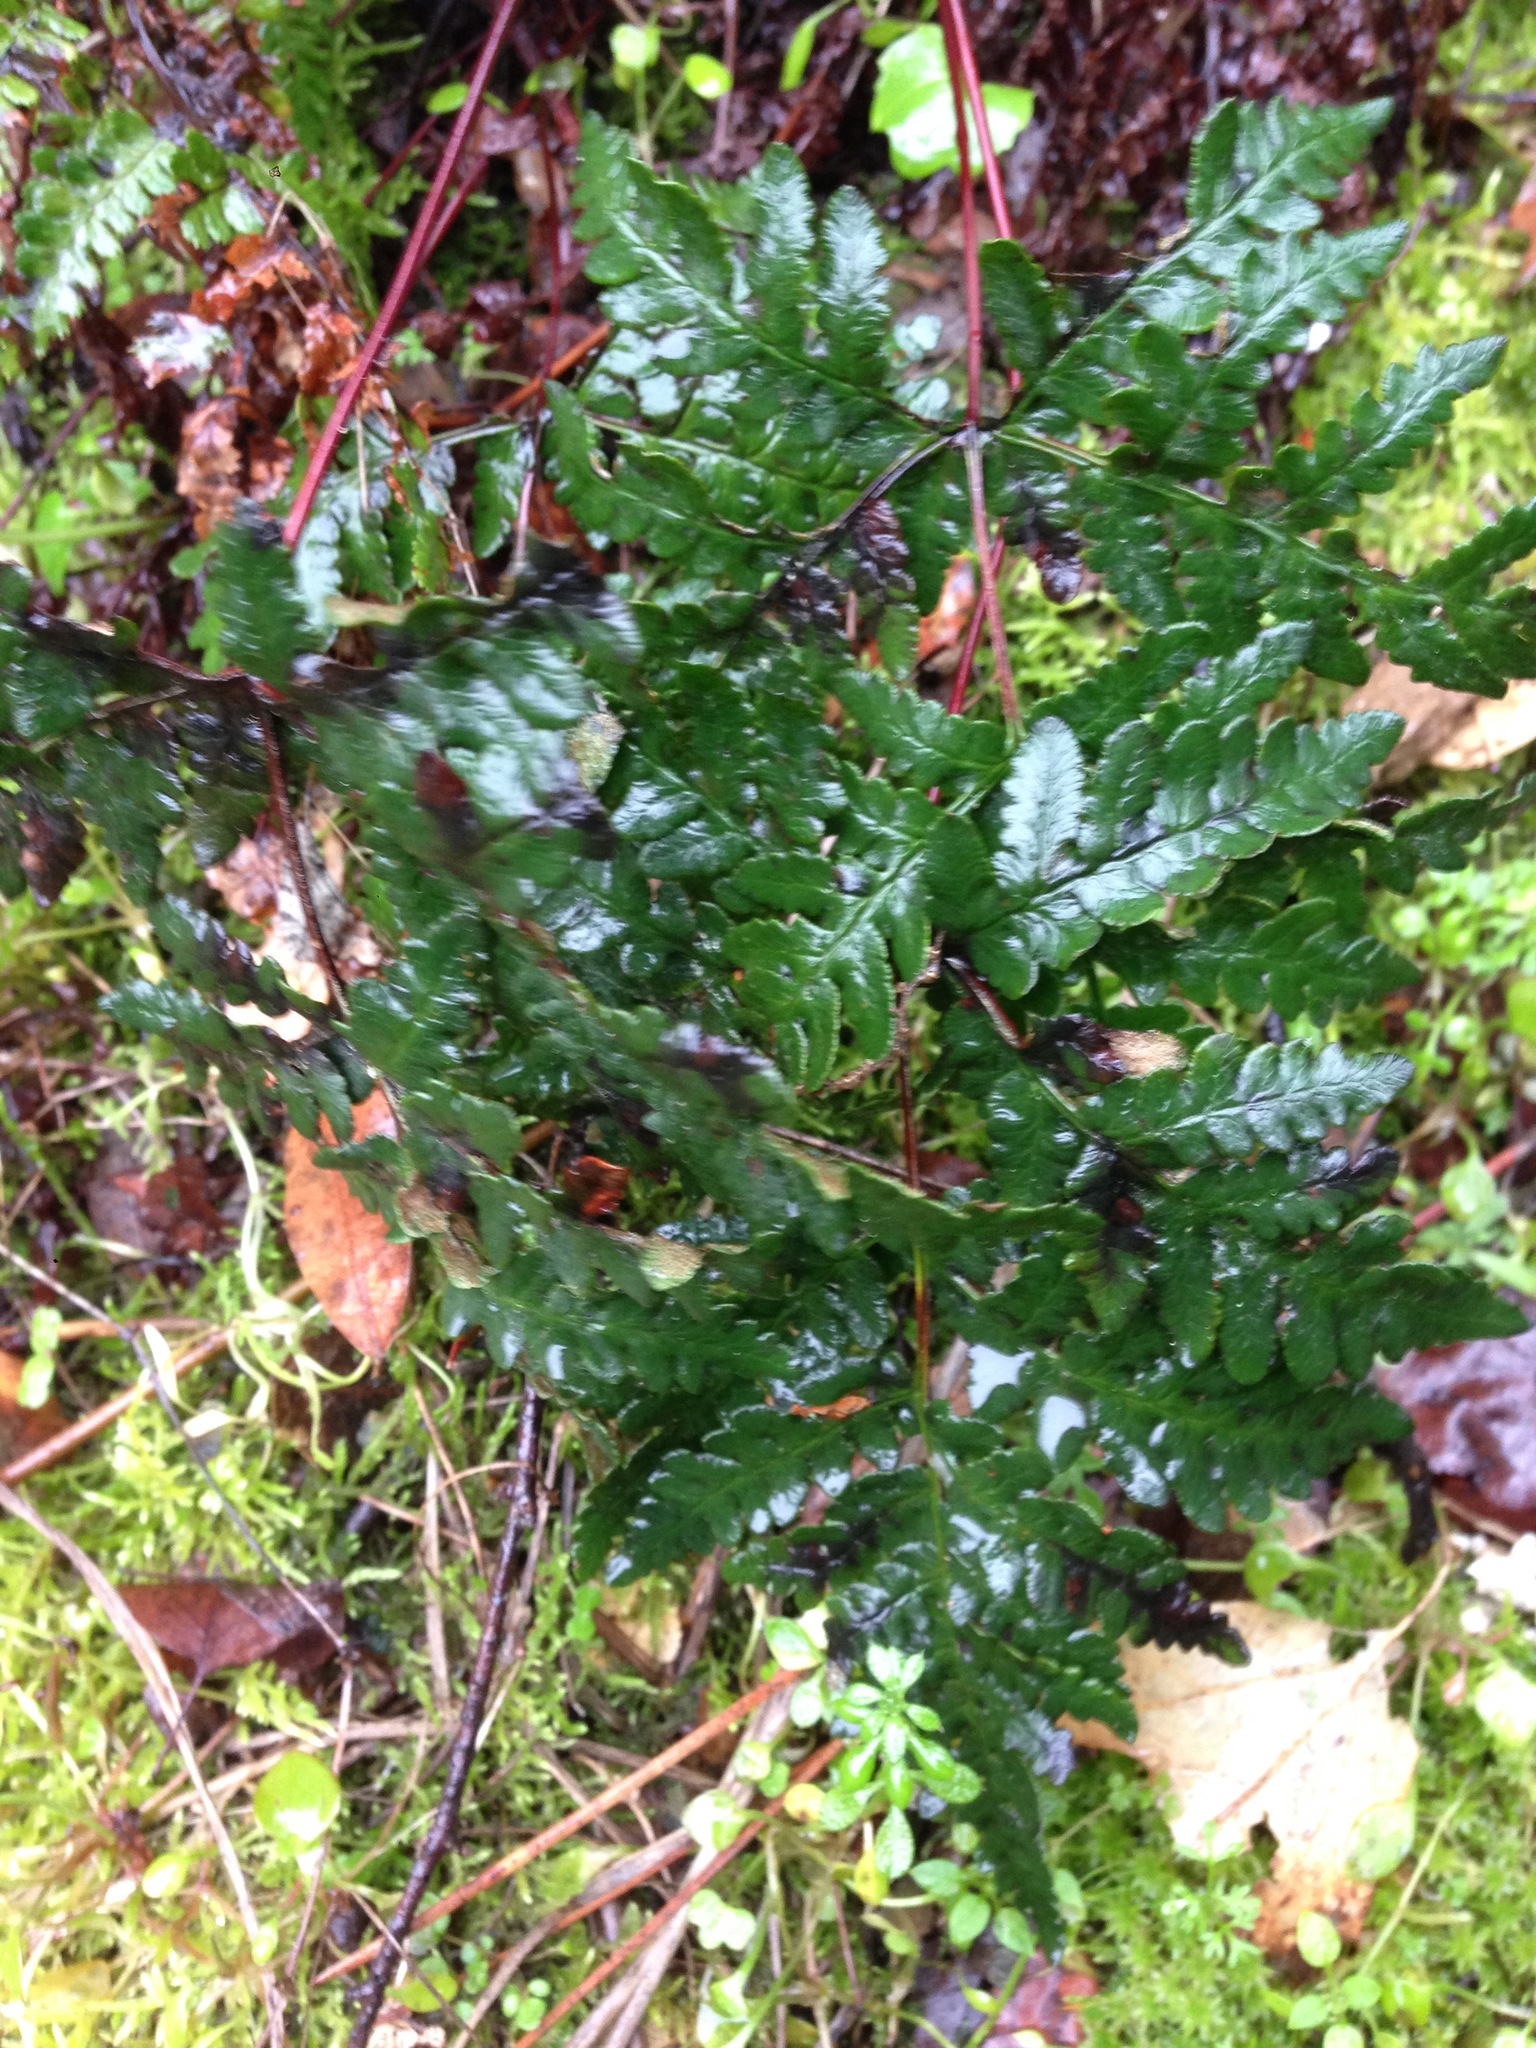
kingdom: Plantae
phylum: Tracheophyta
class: Polypodiopsida
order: Polypodiales
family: Pteridaceae
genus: Pentagramma
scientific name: Pentagramma triangularis
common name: Gold fern
